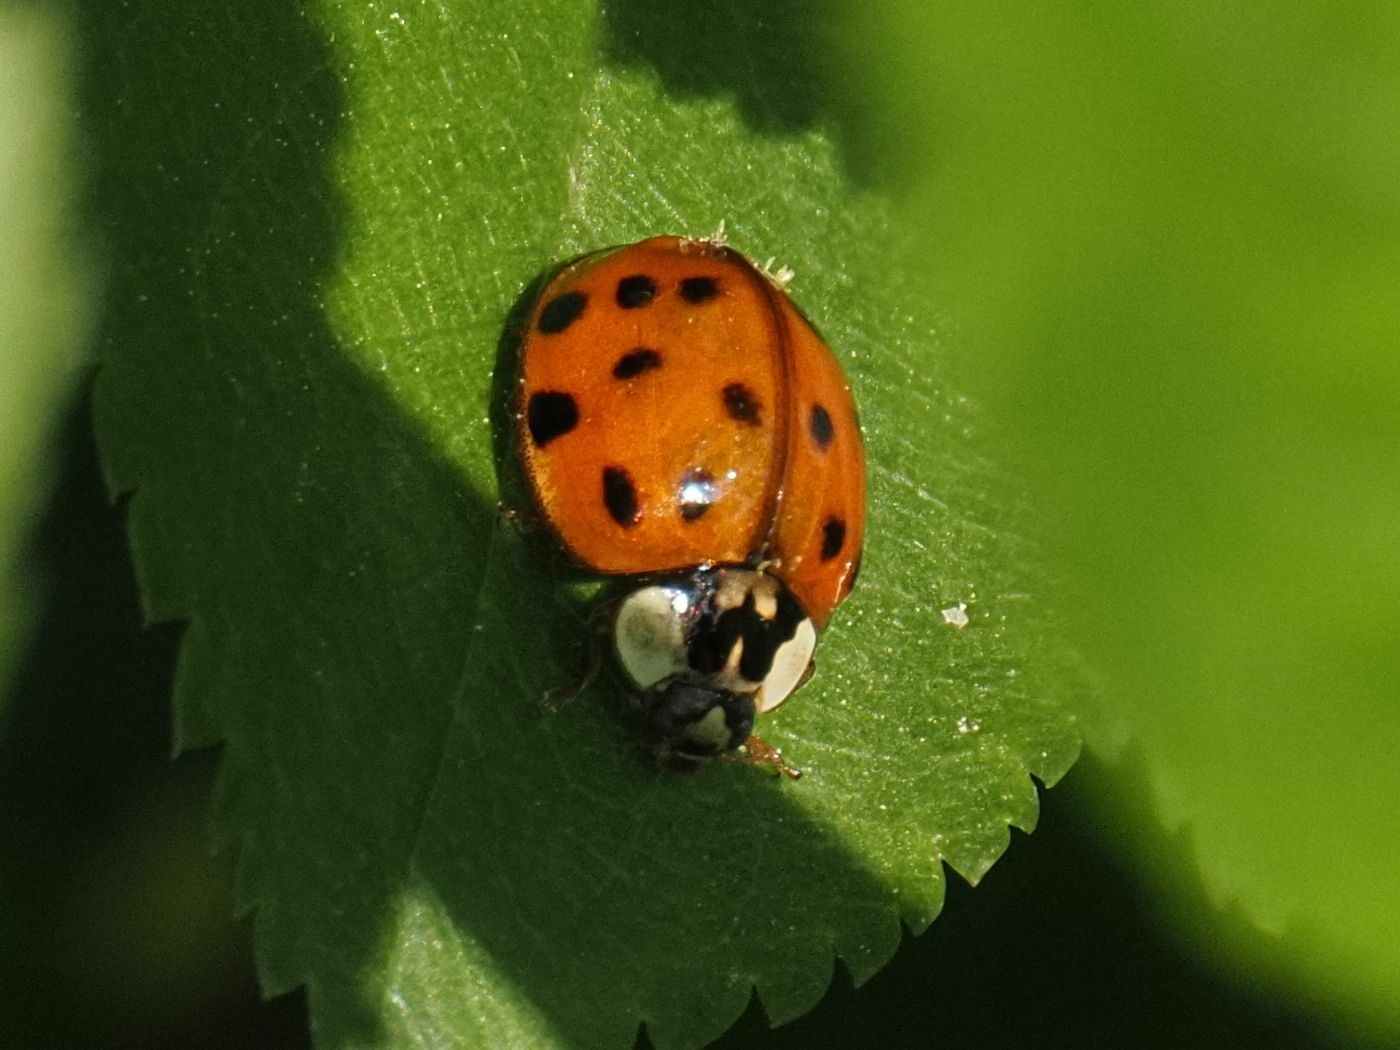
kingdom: Animalia
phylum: Arthropoda
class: Insecta
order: Coleoptera
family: Coccinellidae
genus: Harmonia
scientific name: Harmonia axyridis
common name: Harlequin ladybird
